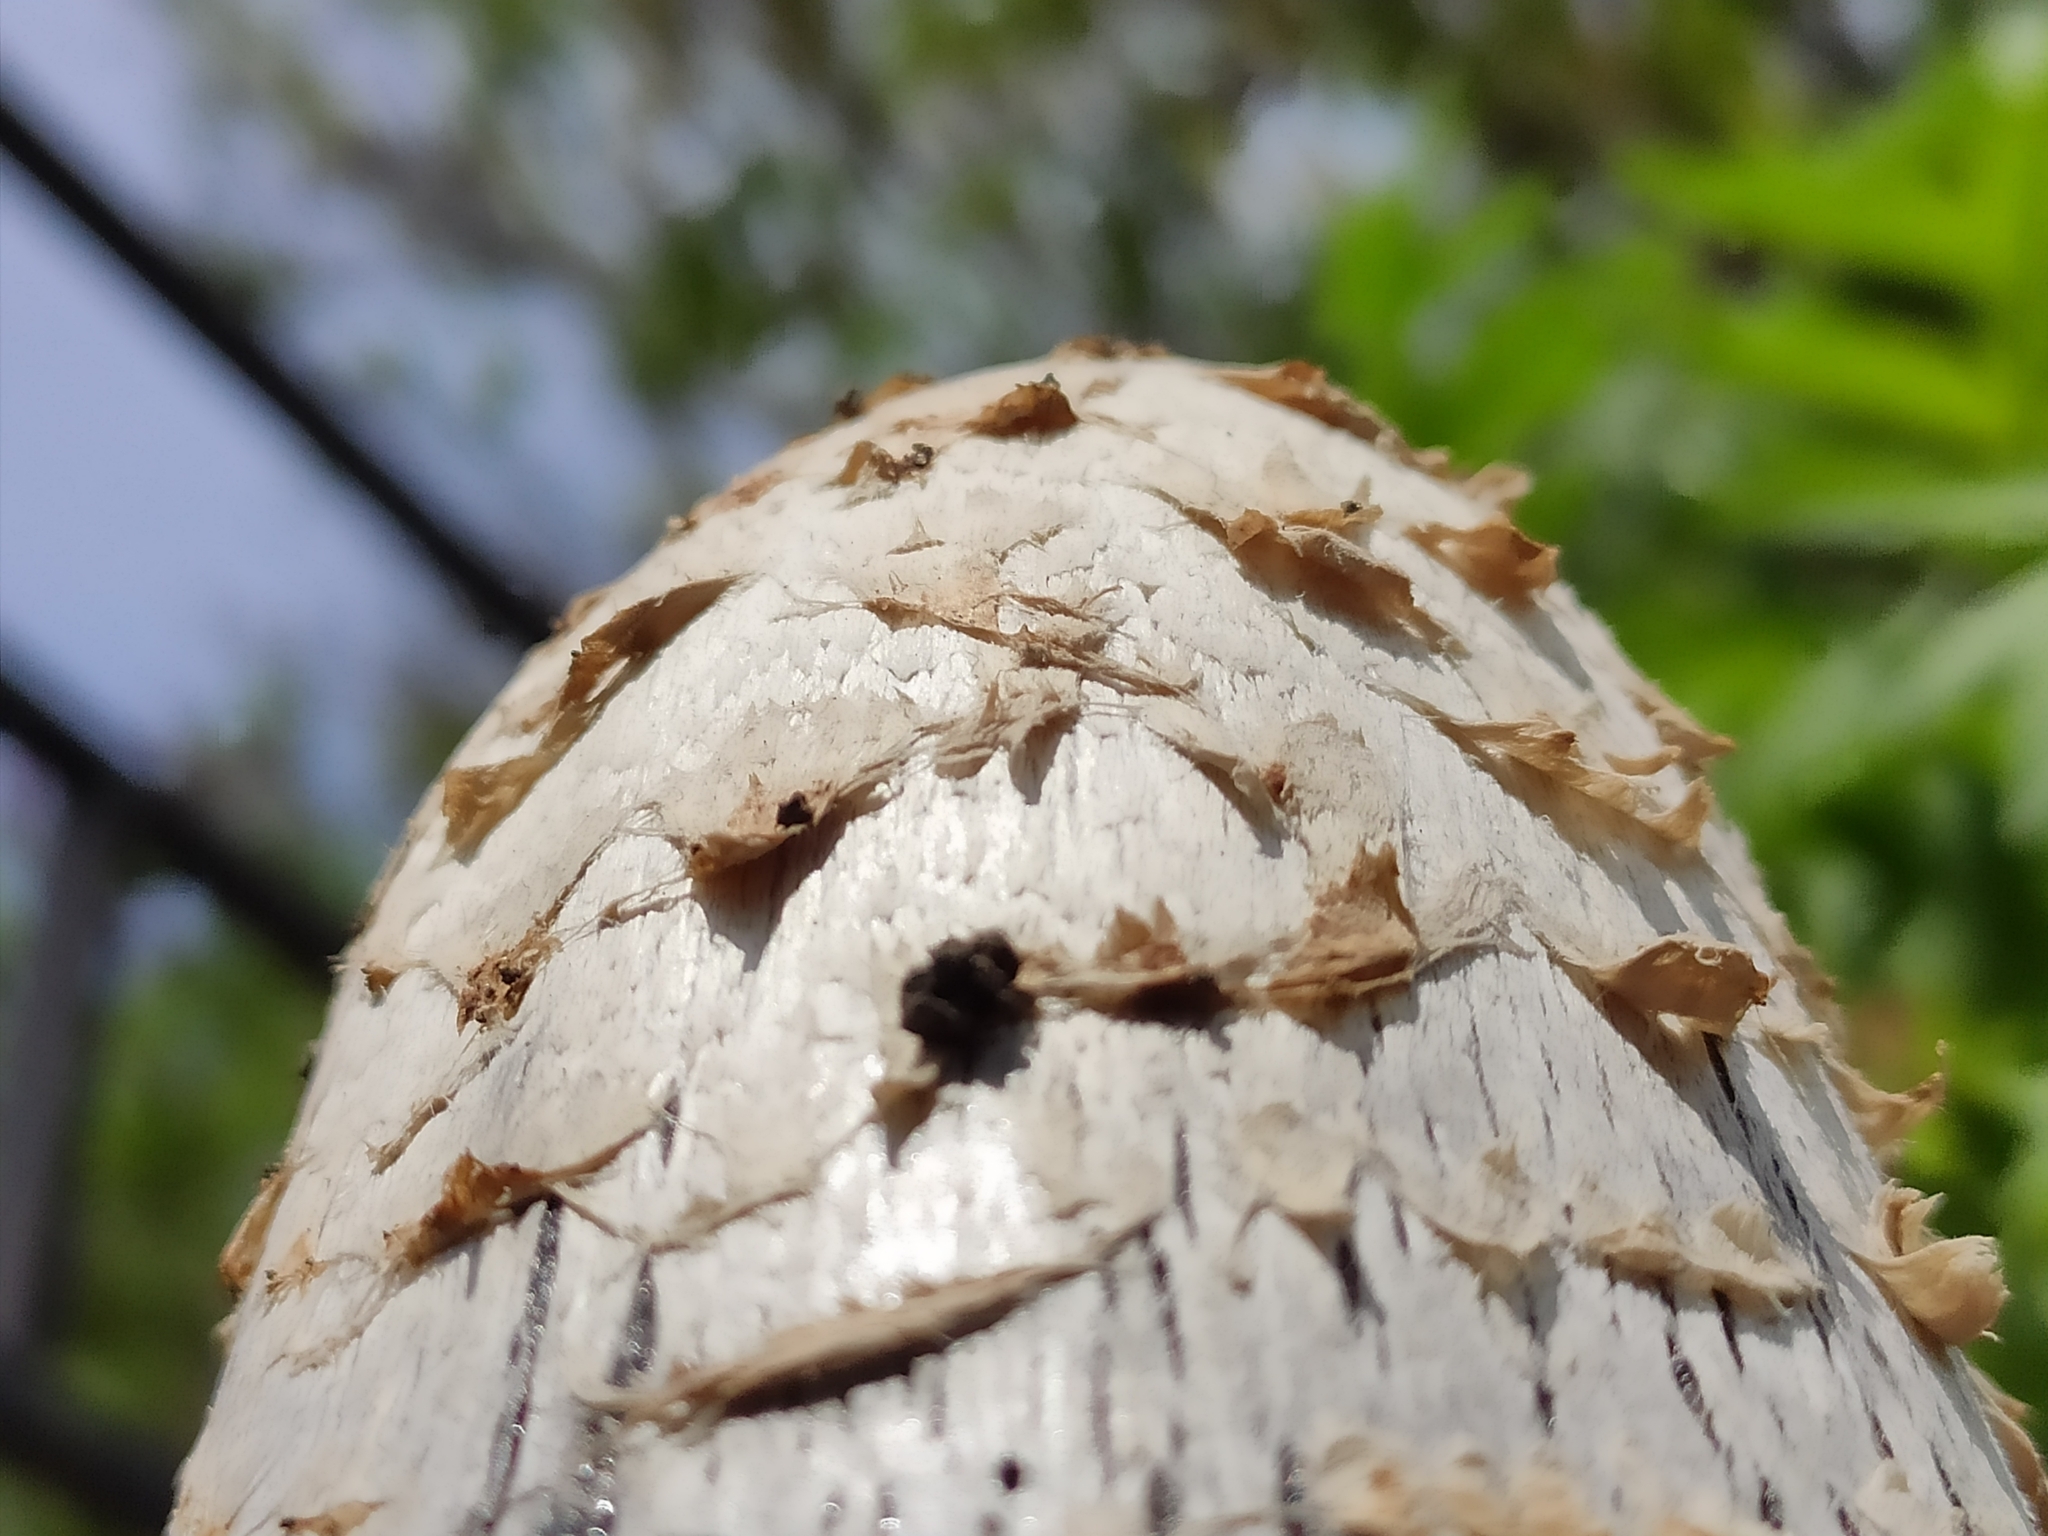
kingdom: Fungi
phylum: Basidiomycota
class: Agaricomycetes
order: Agaricales
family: Agaricaceae
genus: Coprinus
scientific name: Coprinus comatus
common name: Lawyer's wig
